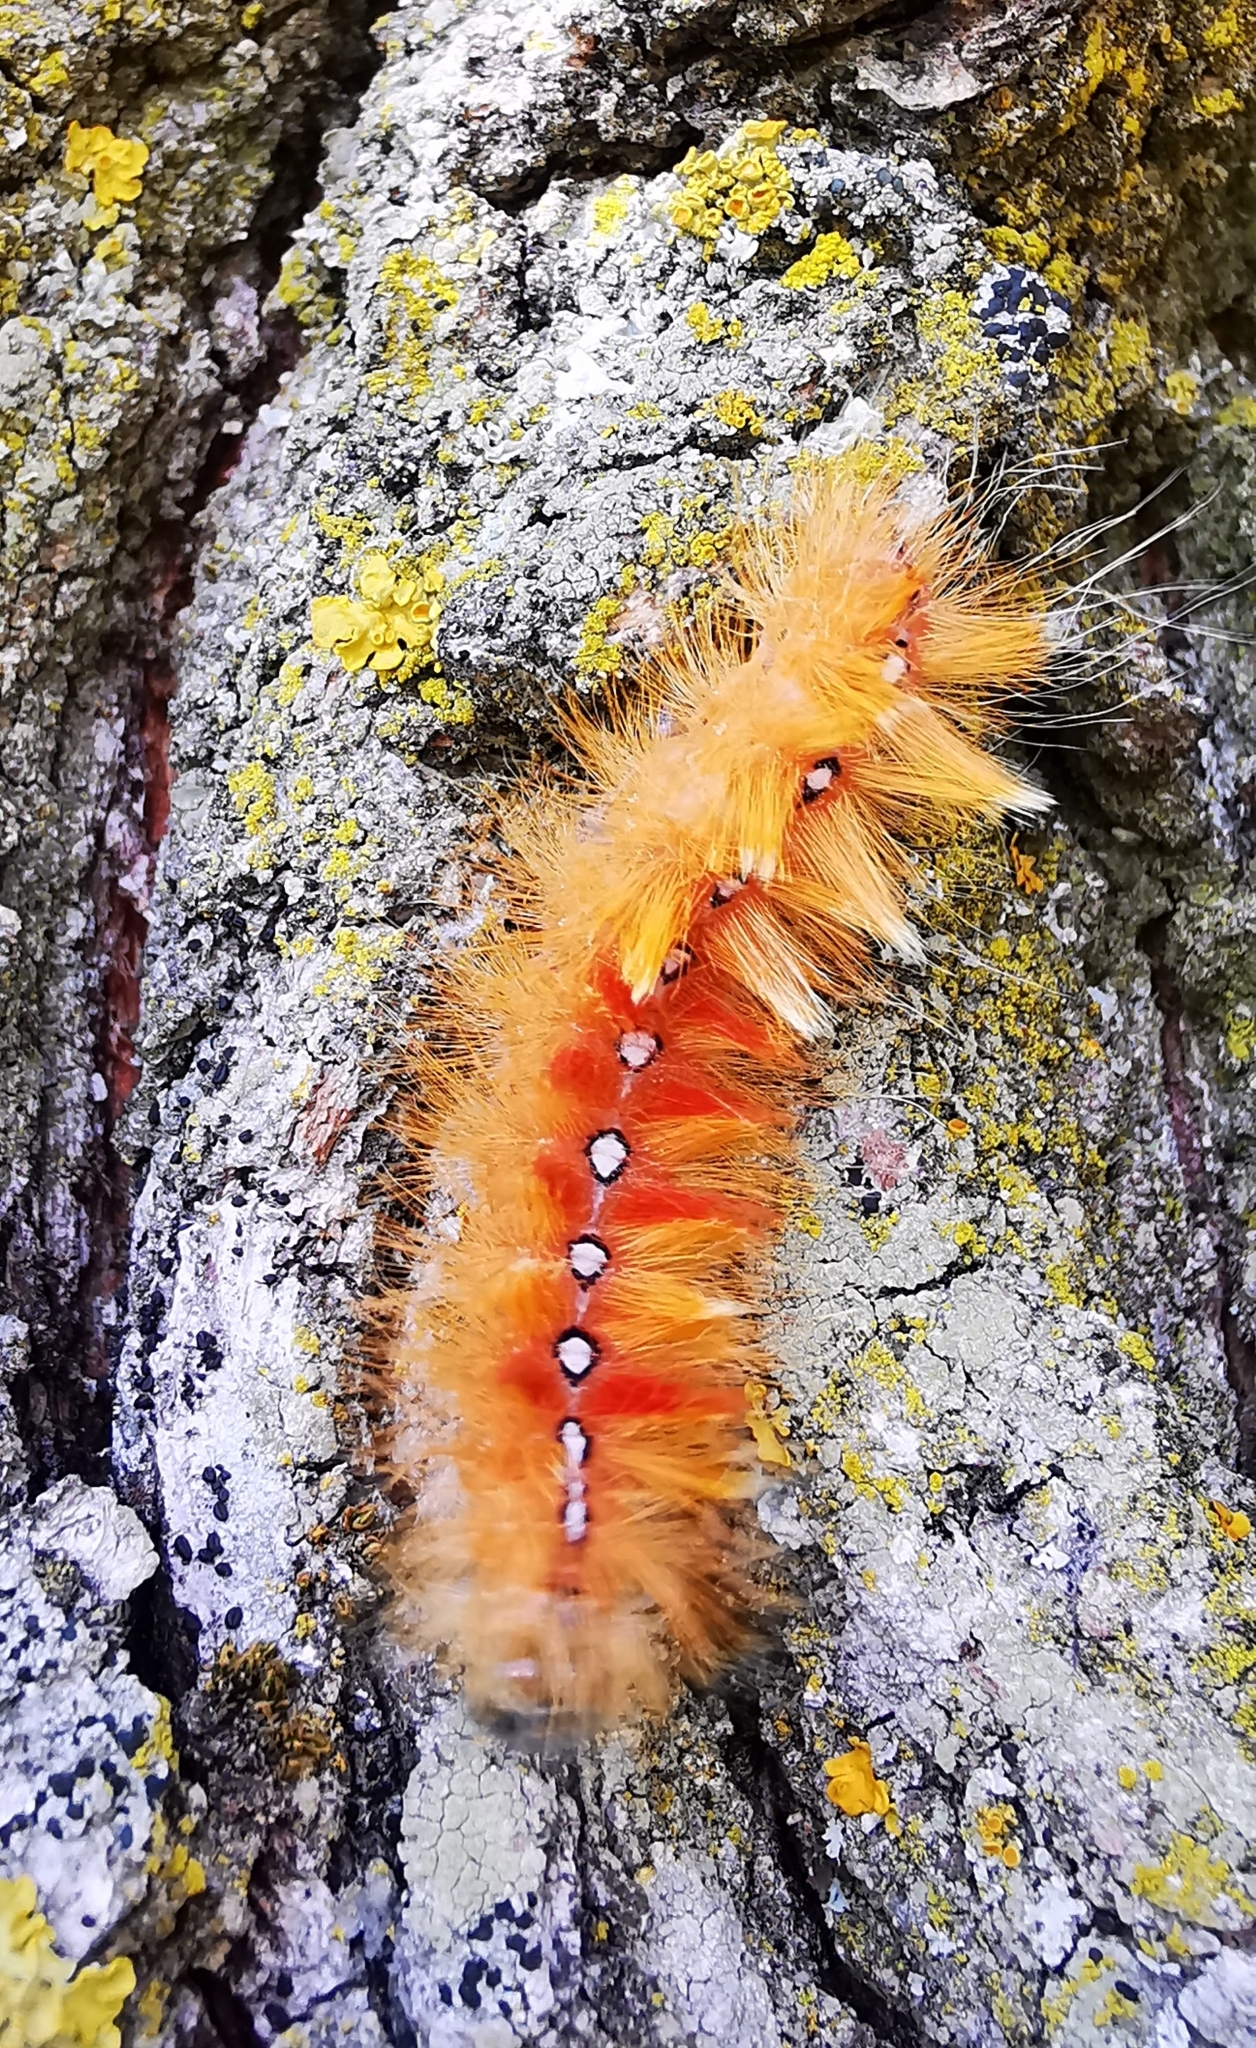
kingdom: Animalia
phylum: Arthropoda
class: Insecta
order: Lepidoptera
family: Noctuidae
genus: Acronicta
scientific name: Acronicta aceris
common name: Sycamore
